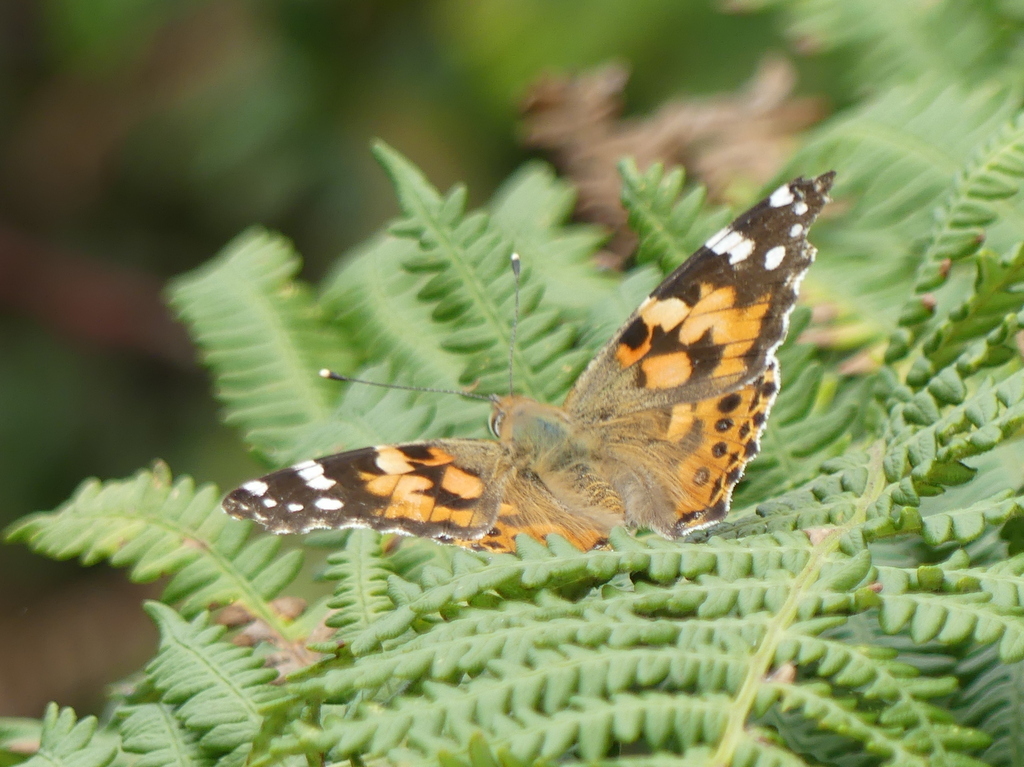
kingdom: Animalia
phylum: Arthropoda
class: Insecta
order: Lepidoptera
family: Nymphalidae
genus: Vanessa
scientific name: Vanessa cardui
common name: Painted lady
